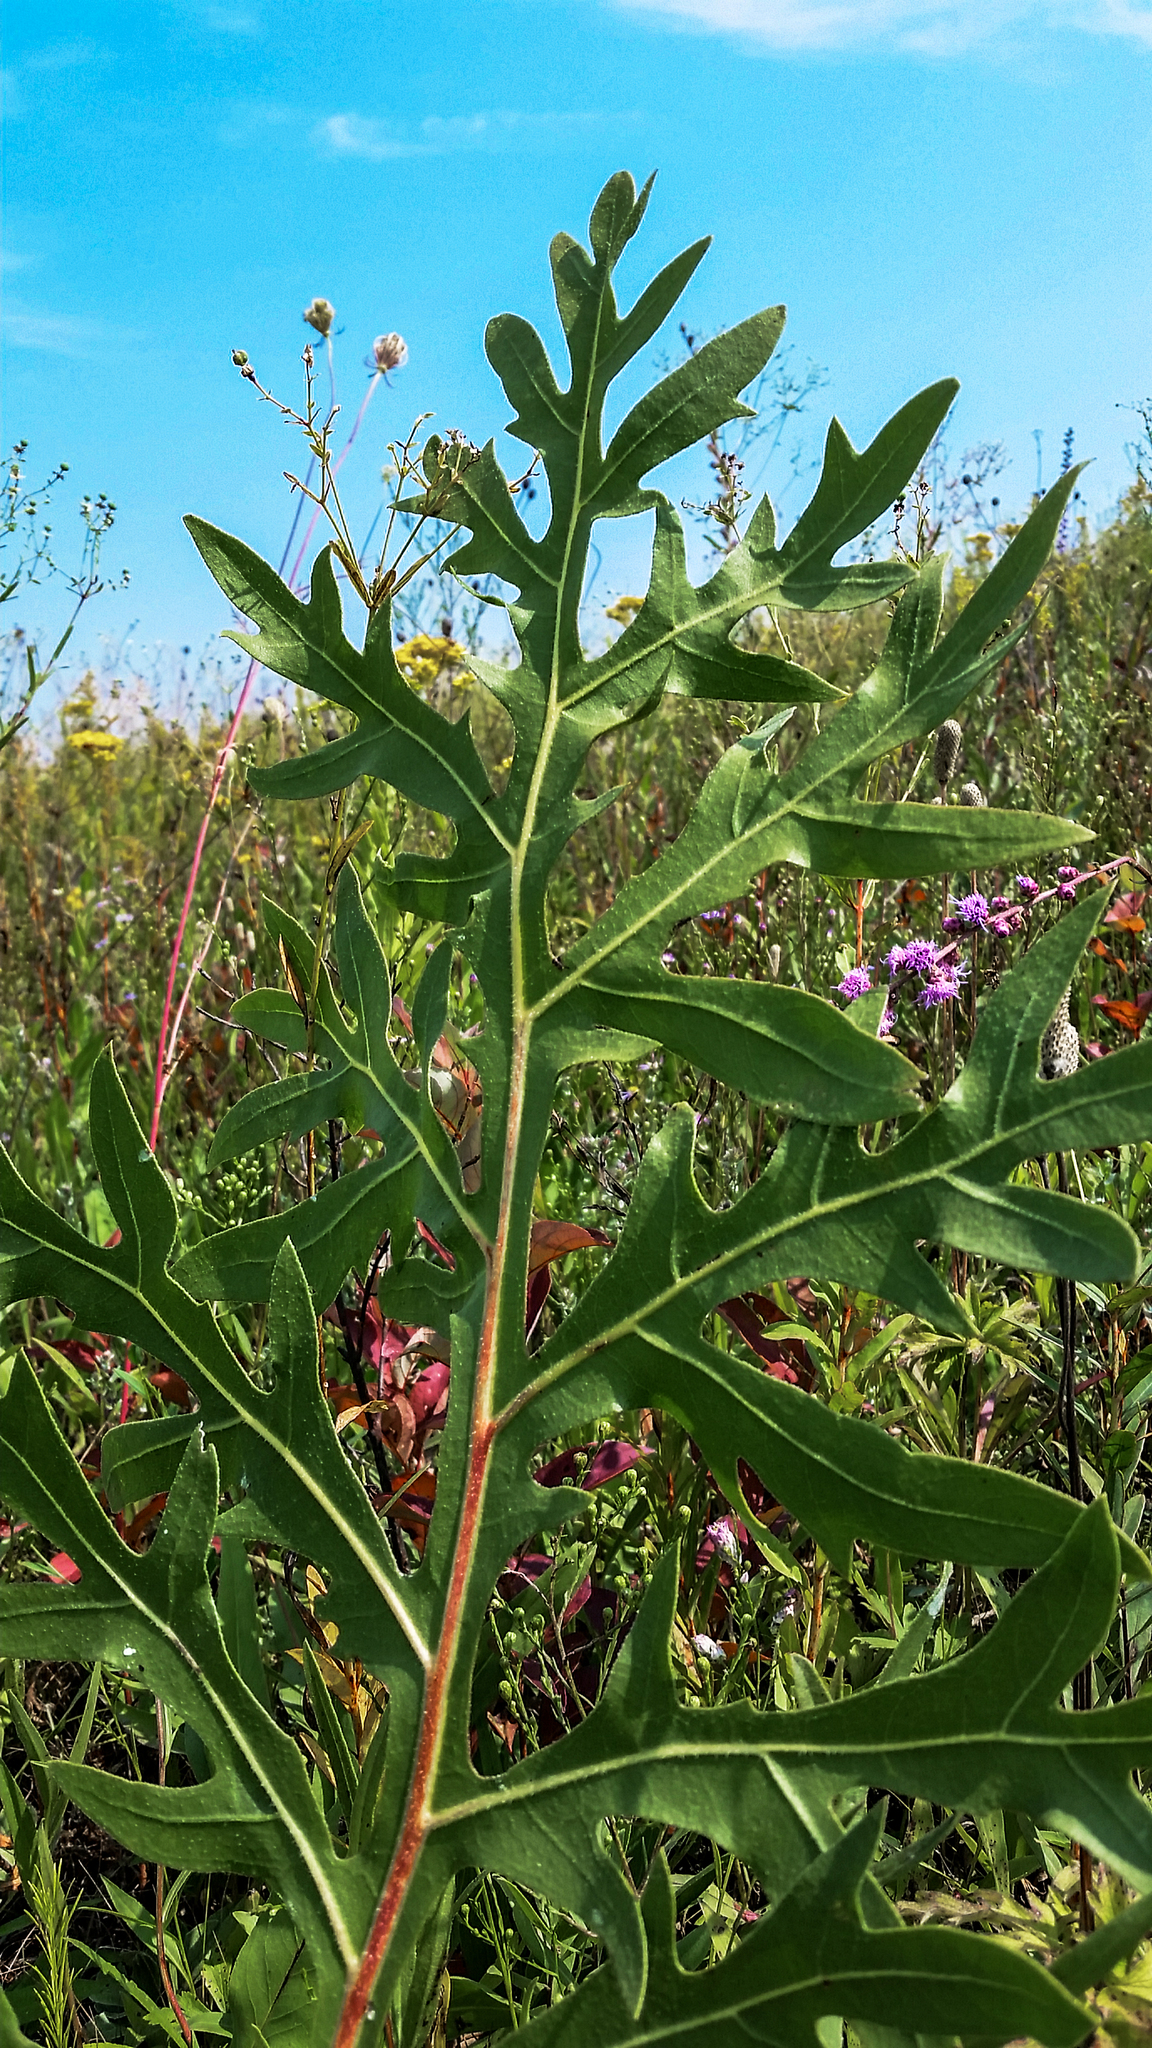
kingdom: Plantae
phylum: Tracheophyta
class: Magnoliopsida
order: Asterales
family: Asteraceae
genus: Silphium
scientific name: Silphium laciniatum
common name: Polarplant
